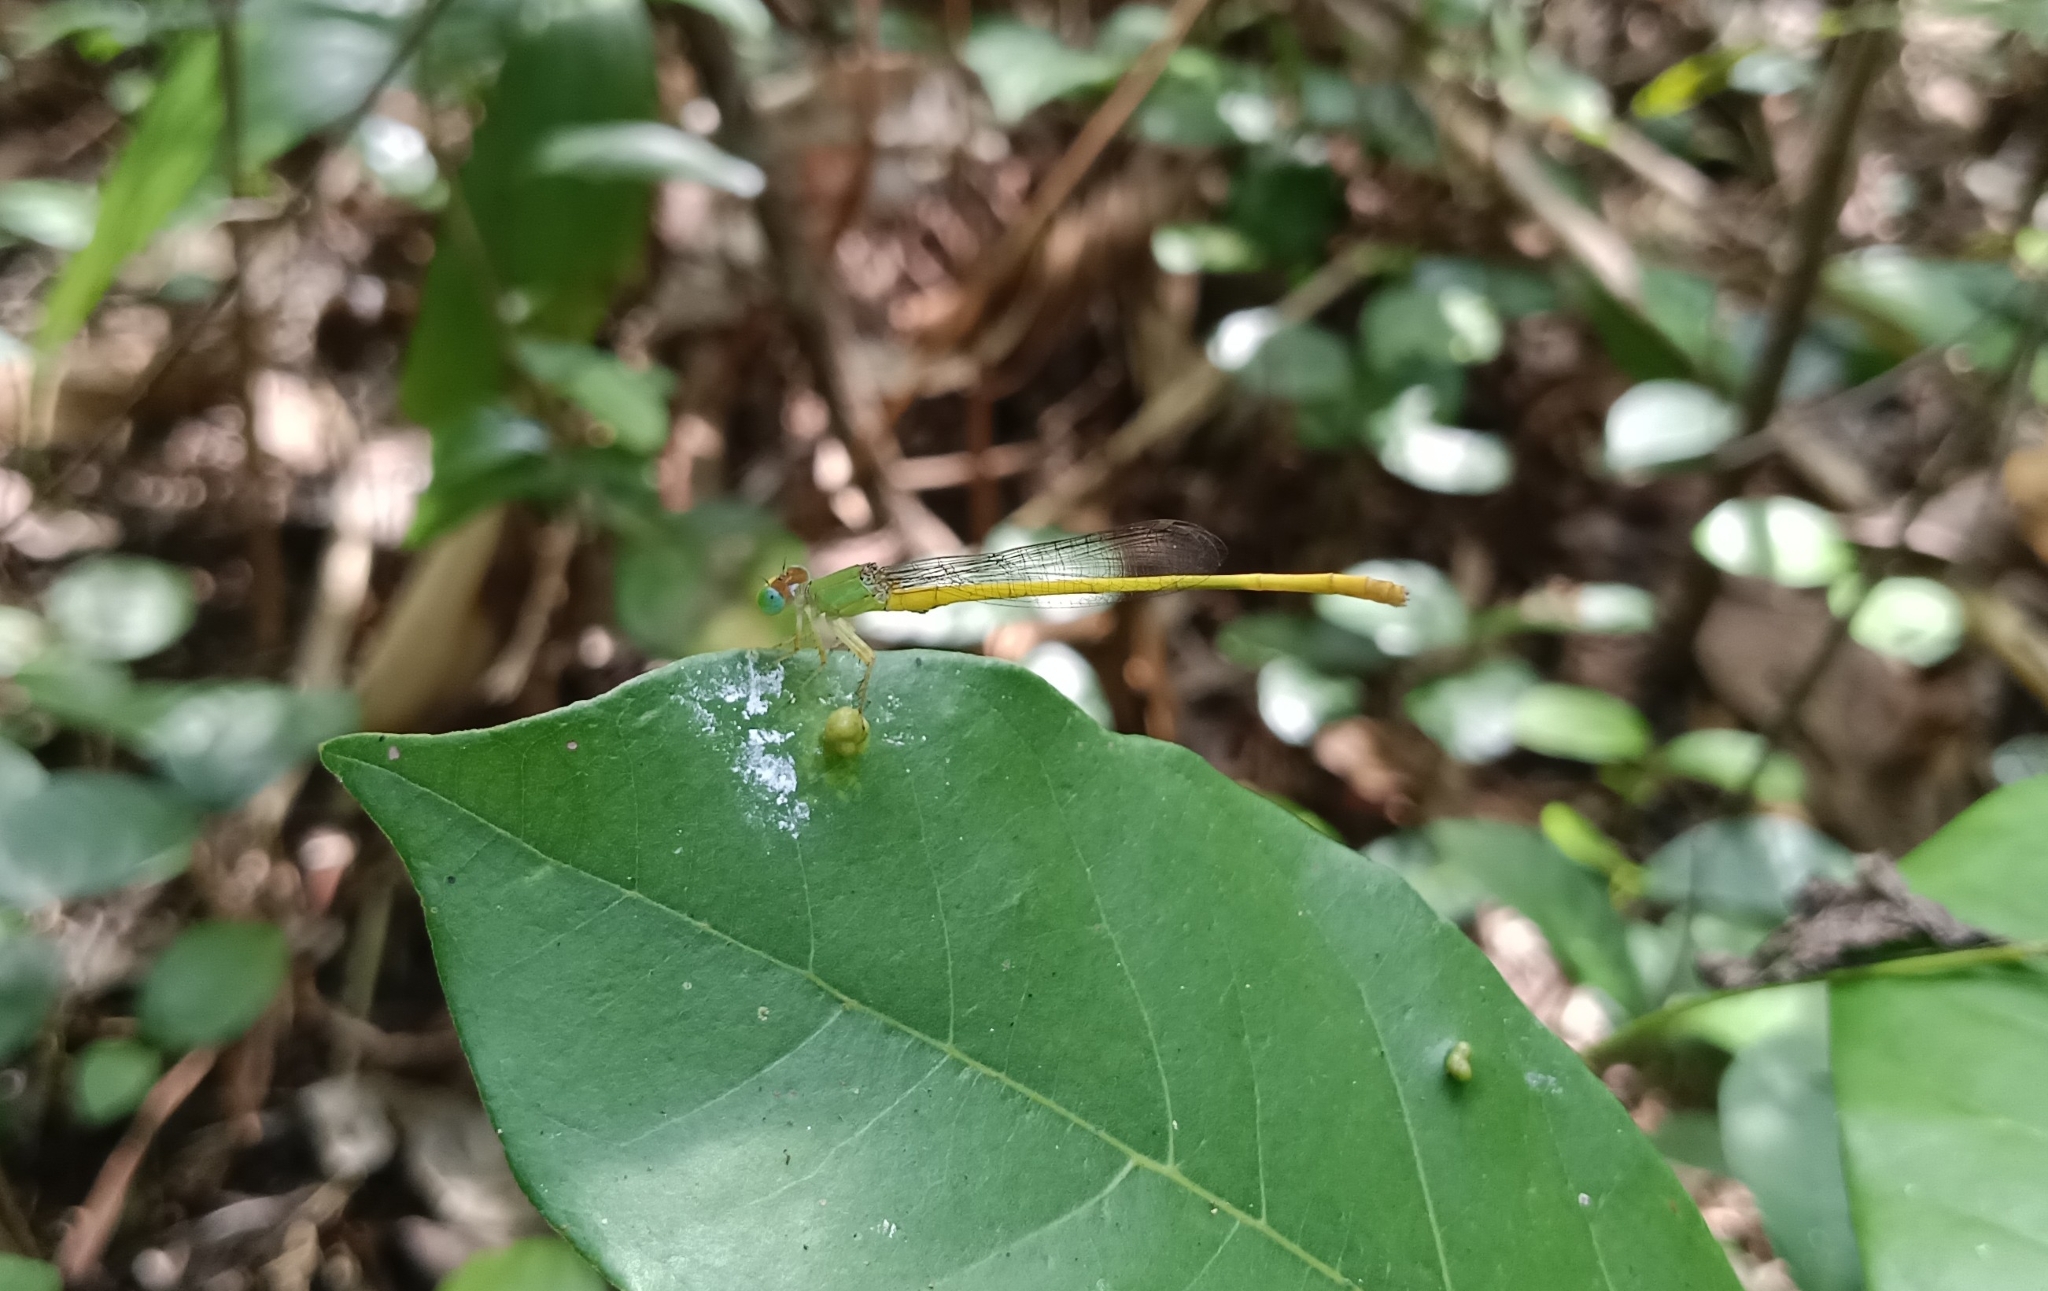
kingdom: Animalia
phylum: Arthropoda
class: Insecta
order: Odonata
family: Coenagrionidae
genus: Ceriagrion
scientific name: Ceriagrion coromandelianum
